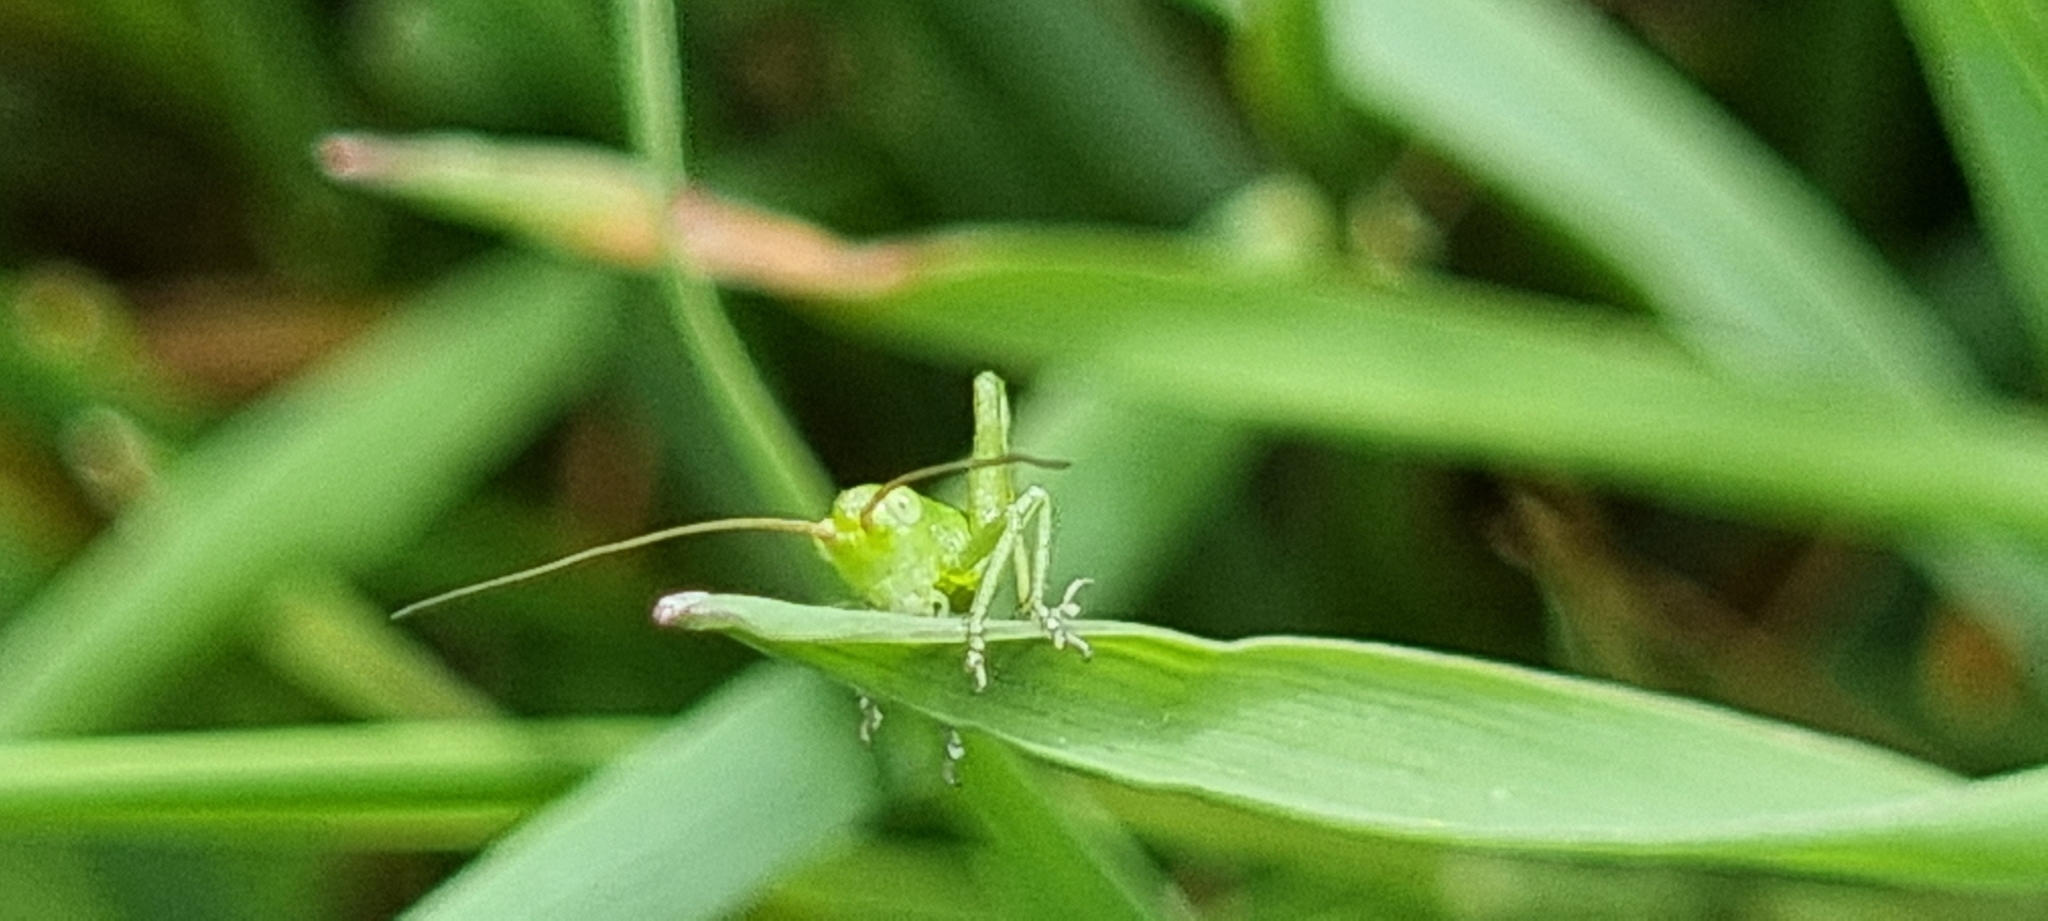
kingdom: Animalia
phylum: Arthropoda
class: Insecta
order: Orthoptera
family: Tettigoniidae
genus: Tettigonia
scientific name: Tettigonia viridissima
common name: Great green bush-cricket
